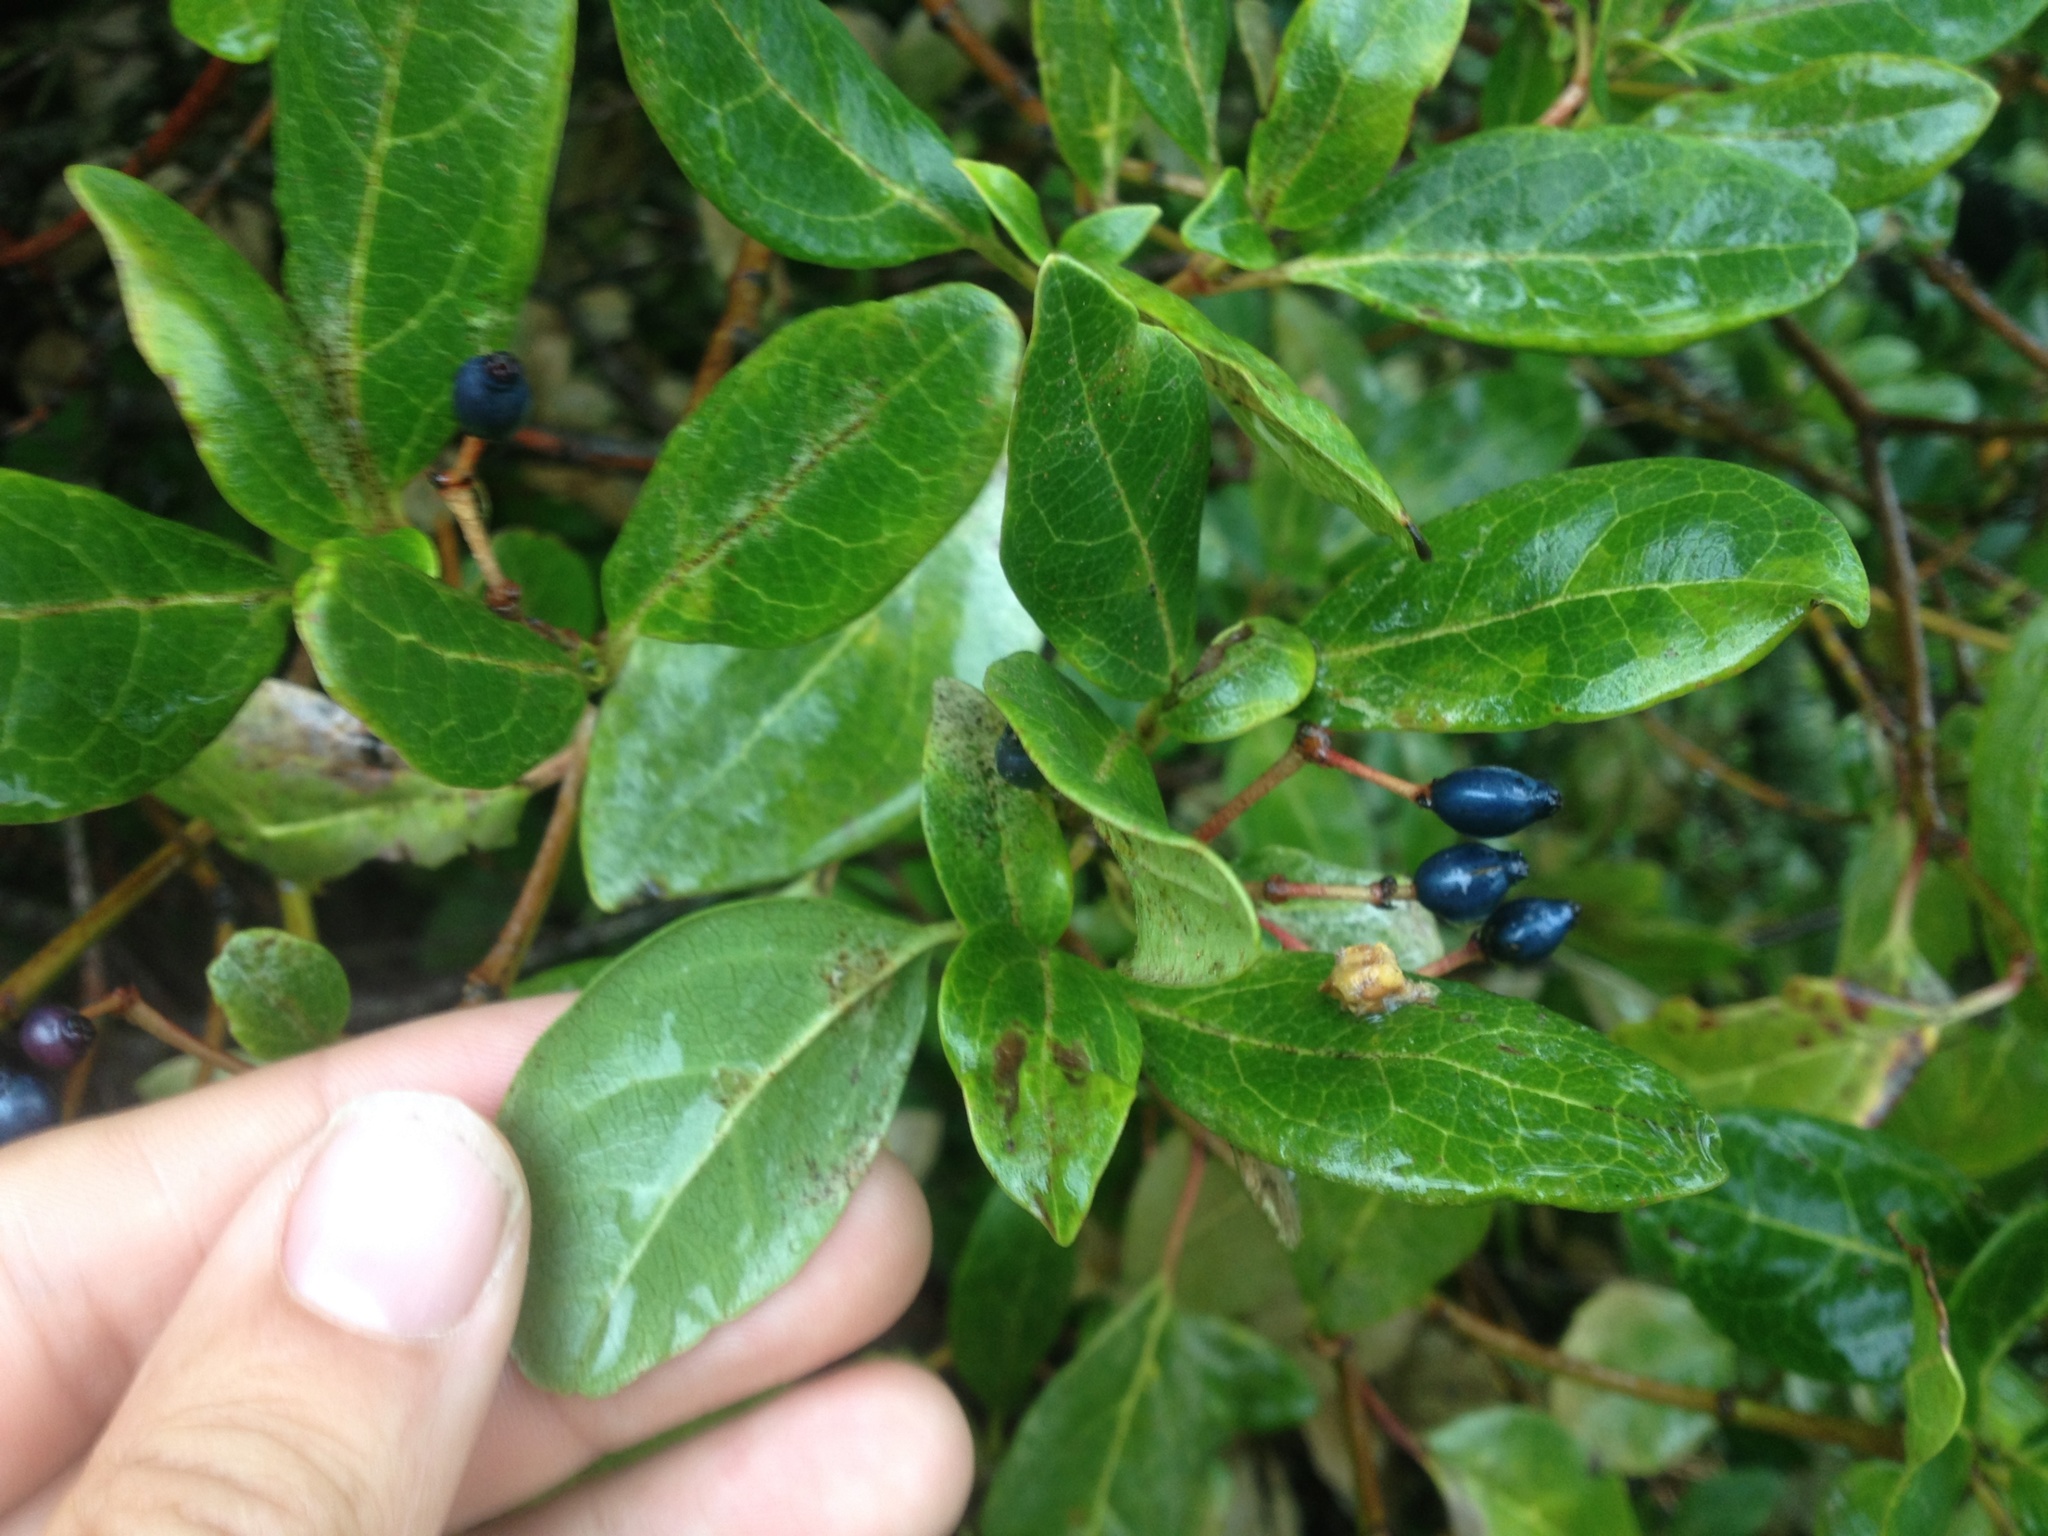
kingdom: Plantae
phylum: Tracheophyta
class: Magnoliopsida
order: Dipsacales
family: Viburnaceae
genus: Viburnum
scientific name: Viburnum tinus
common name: Laurustinus
